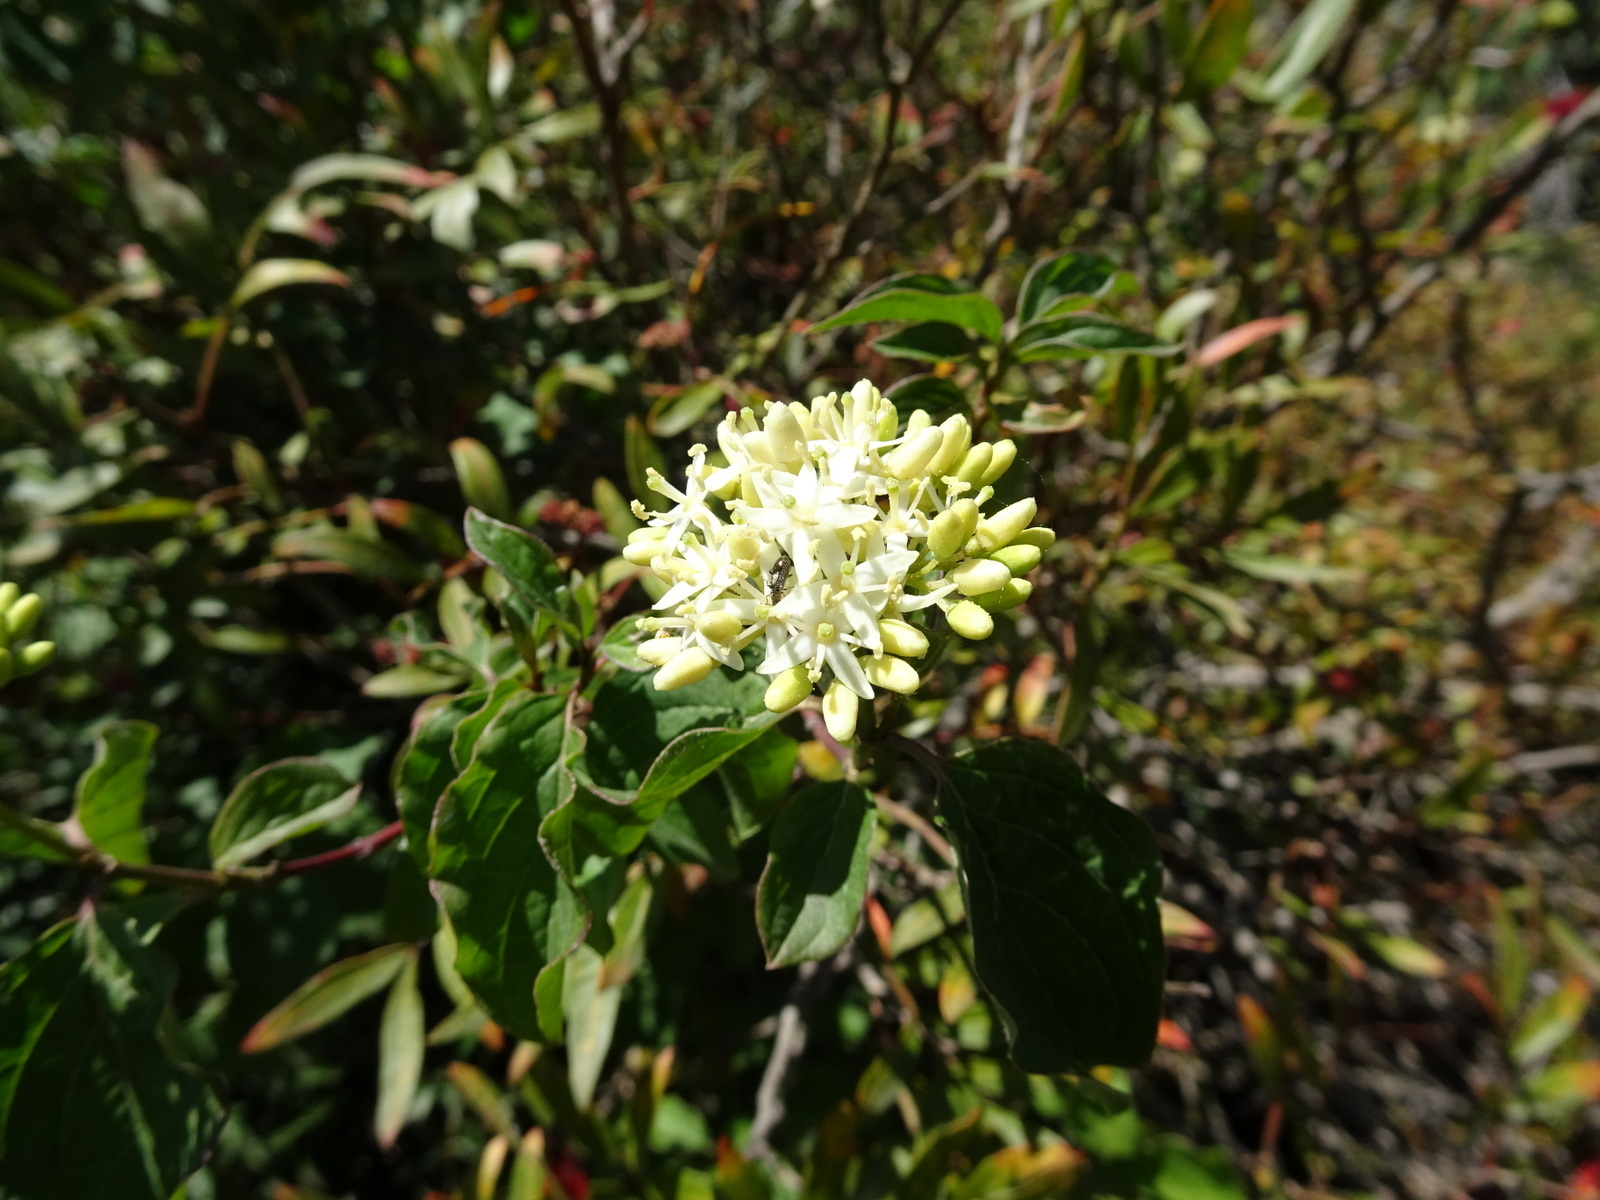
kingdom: Plantae
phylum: Tracheophyta
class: Magnoliopsida
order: Cornales
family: Cornaceae
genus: Cornus
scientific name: Cornus sanguinea
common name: Dogwood
